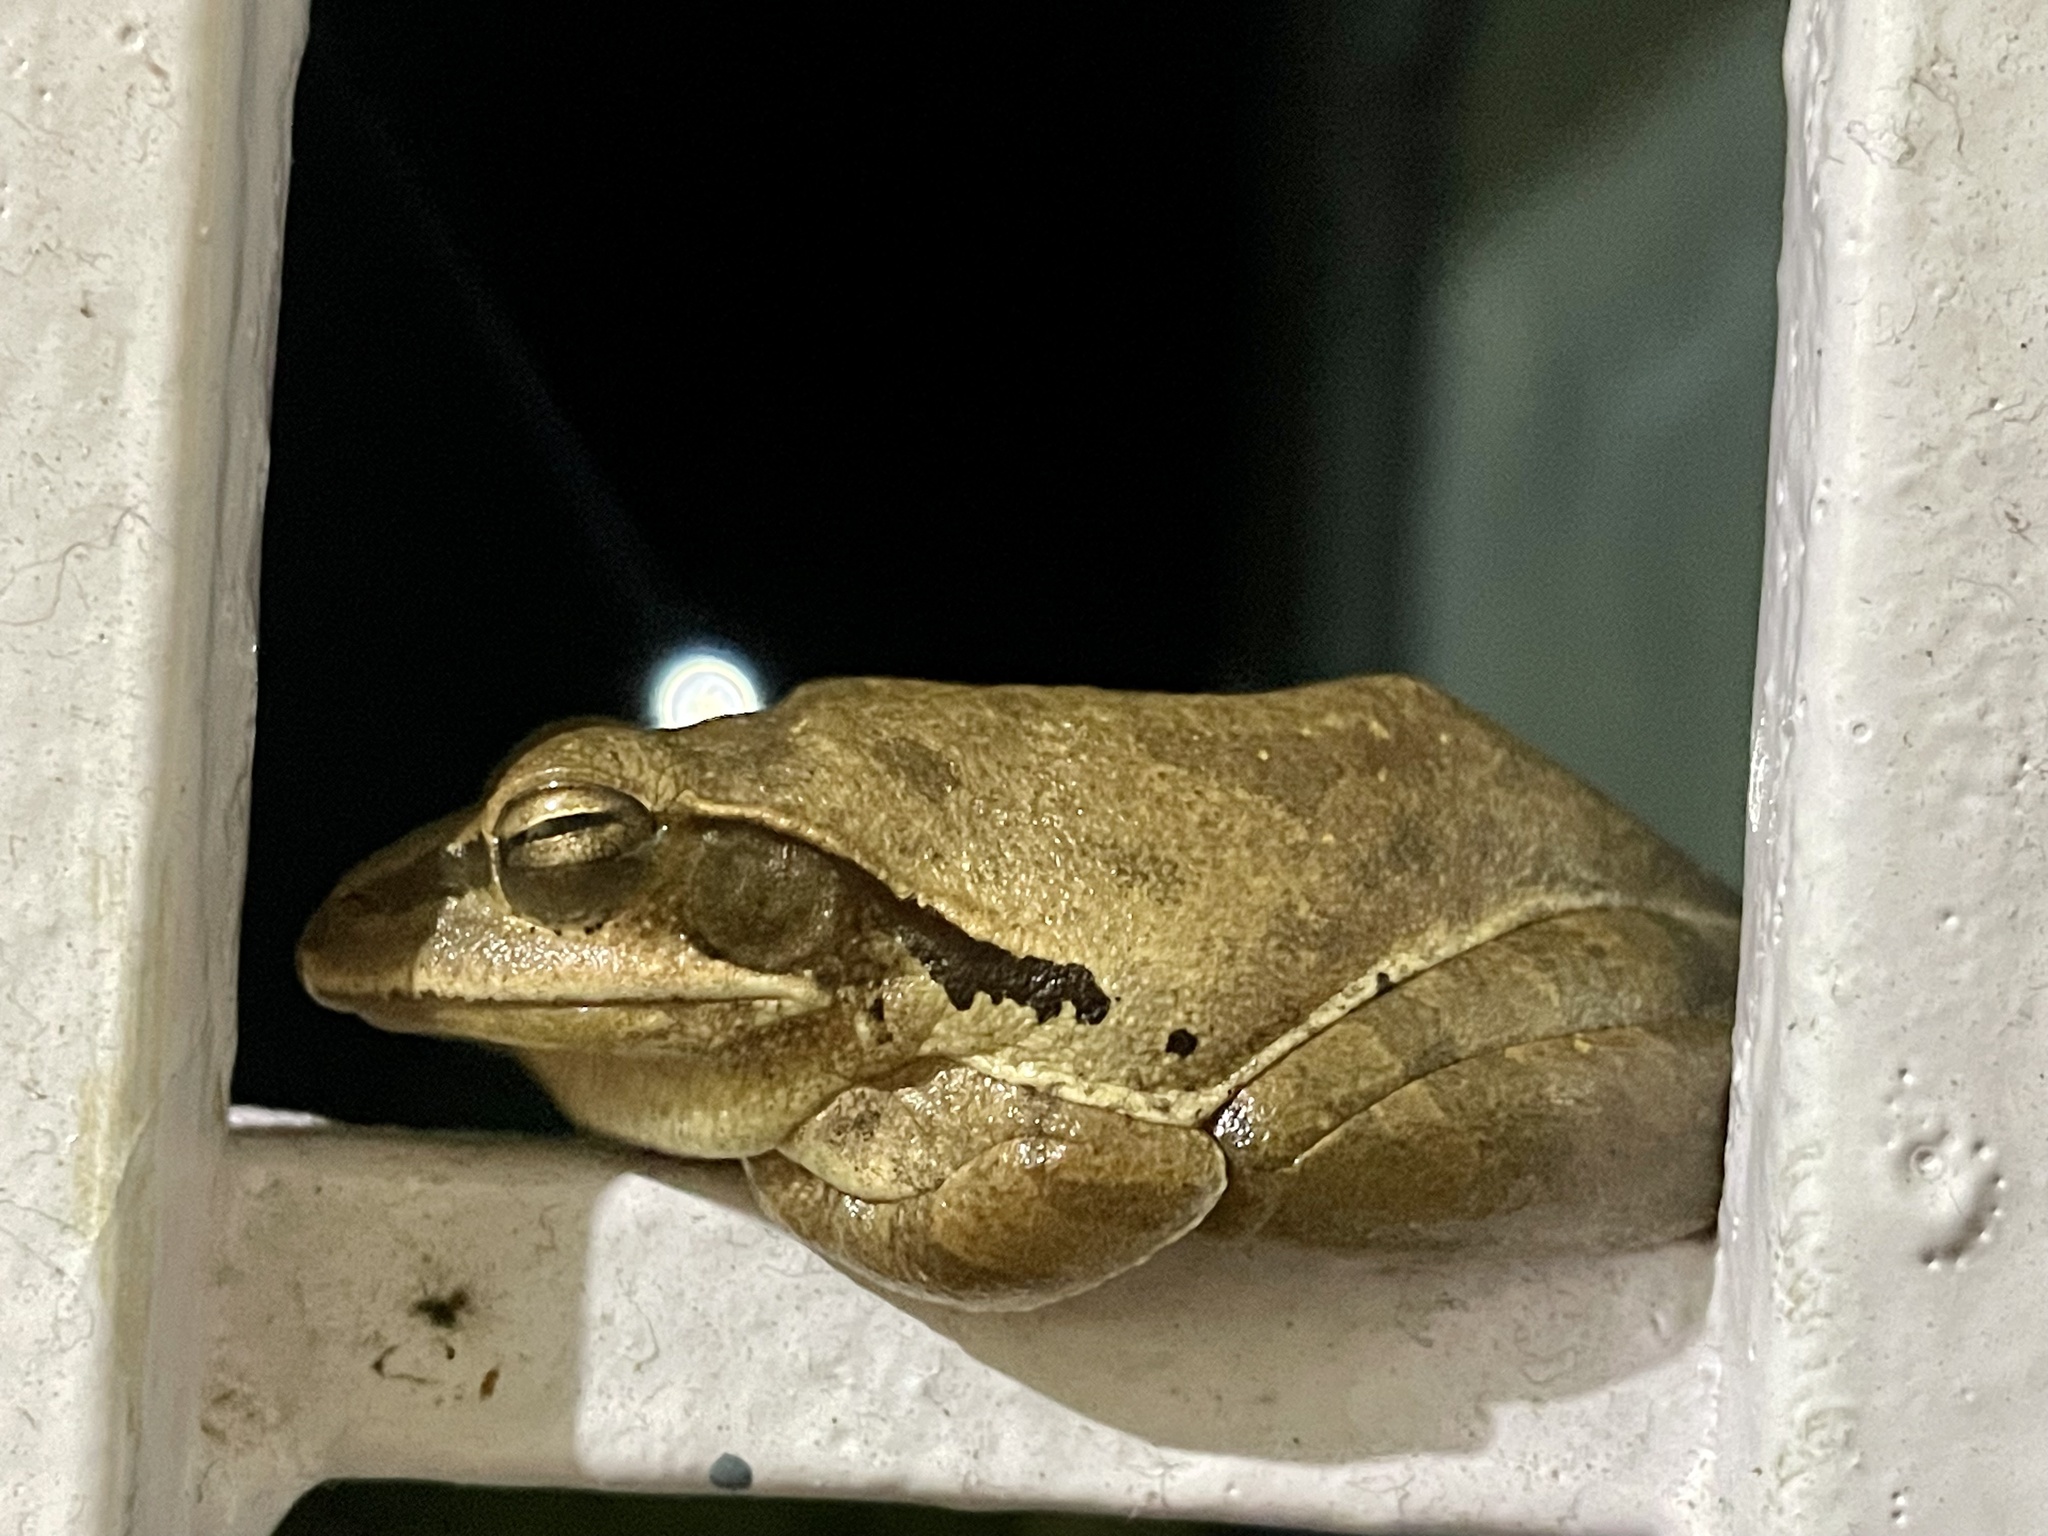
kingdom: Animalia
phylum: Chordata
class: Amphibia
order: Anura
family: Rhacophoridae
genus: Polypedates
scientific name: Polypedates maculatus
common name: Himalayan tree frog
